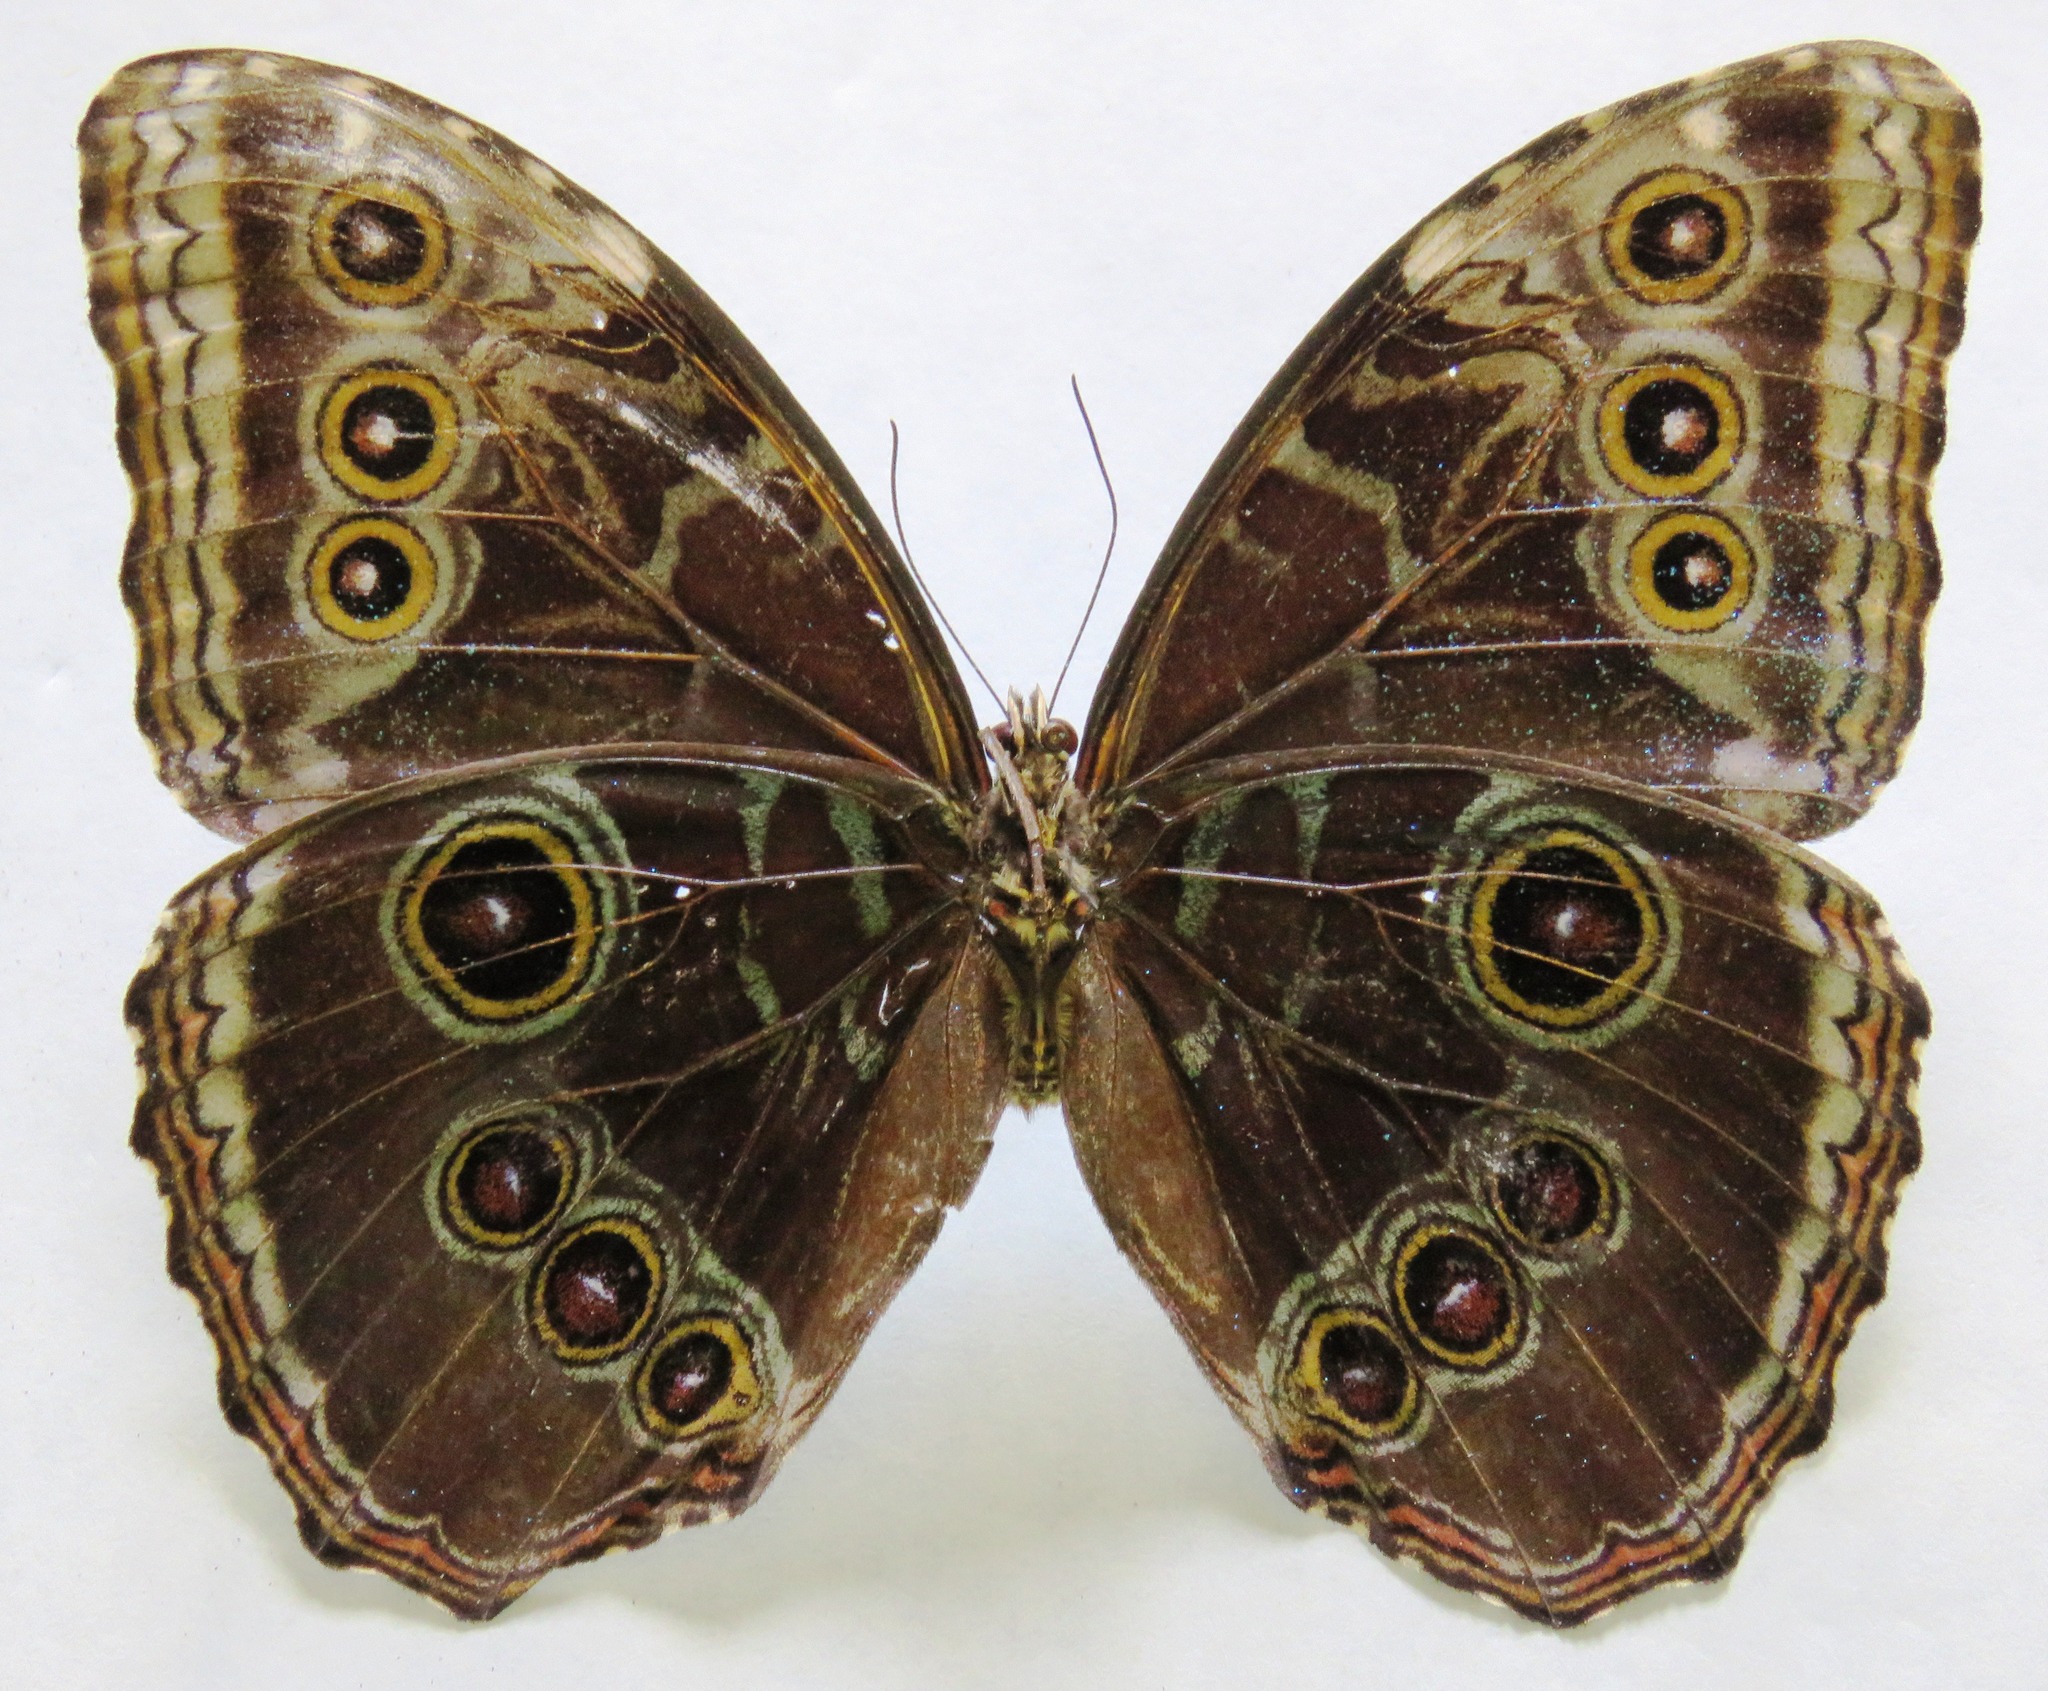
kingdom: Animalia
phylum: Arthropoda
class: Insecta
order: Lepidoptera
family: Nymphalidae
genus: Morpho
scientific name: Morpho helenor
